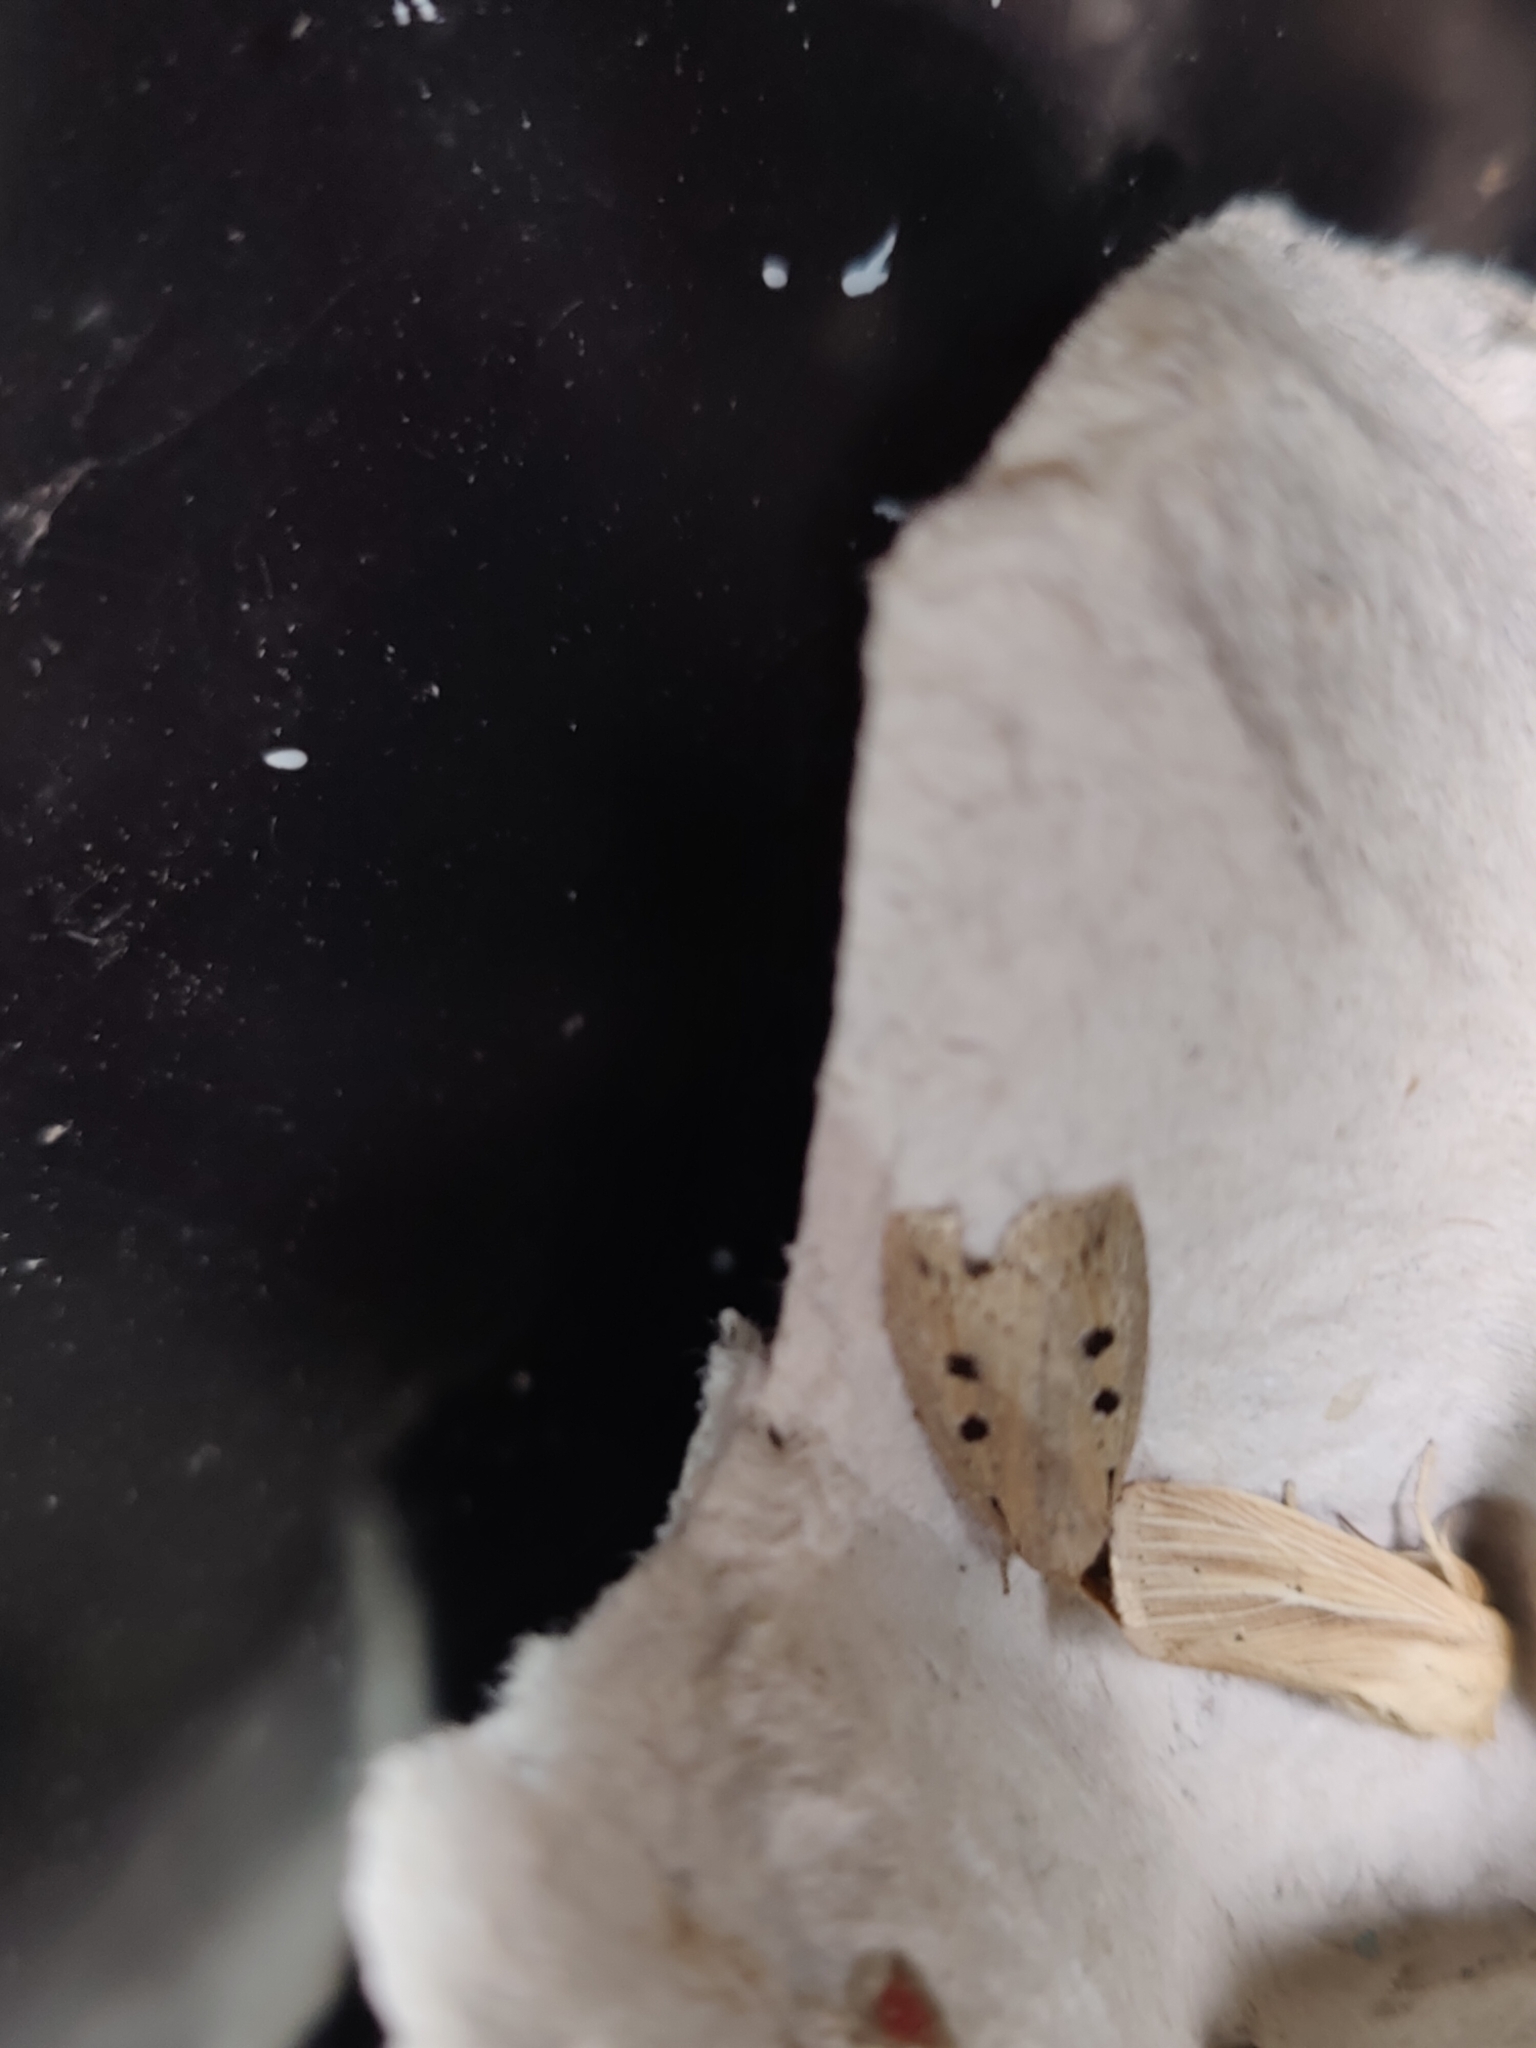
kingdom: Animalia
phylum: Arthropoda
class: Insecta
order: Lepidoptera
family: Noctuidae
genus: Chilodes
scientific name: Chilodes maritima
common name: Silky wainscot
